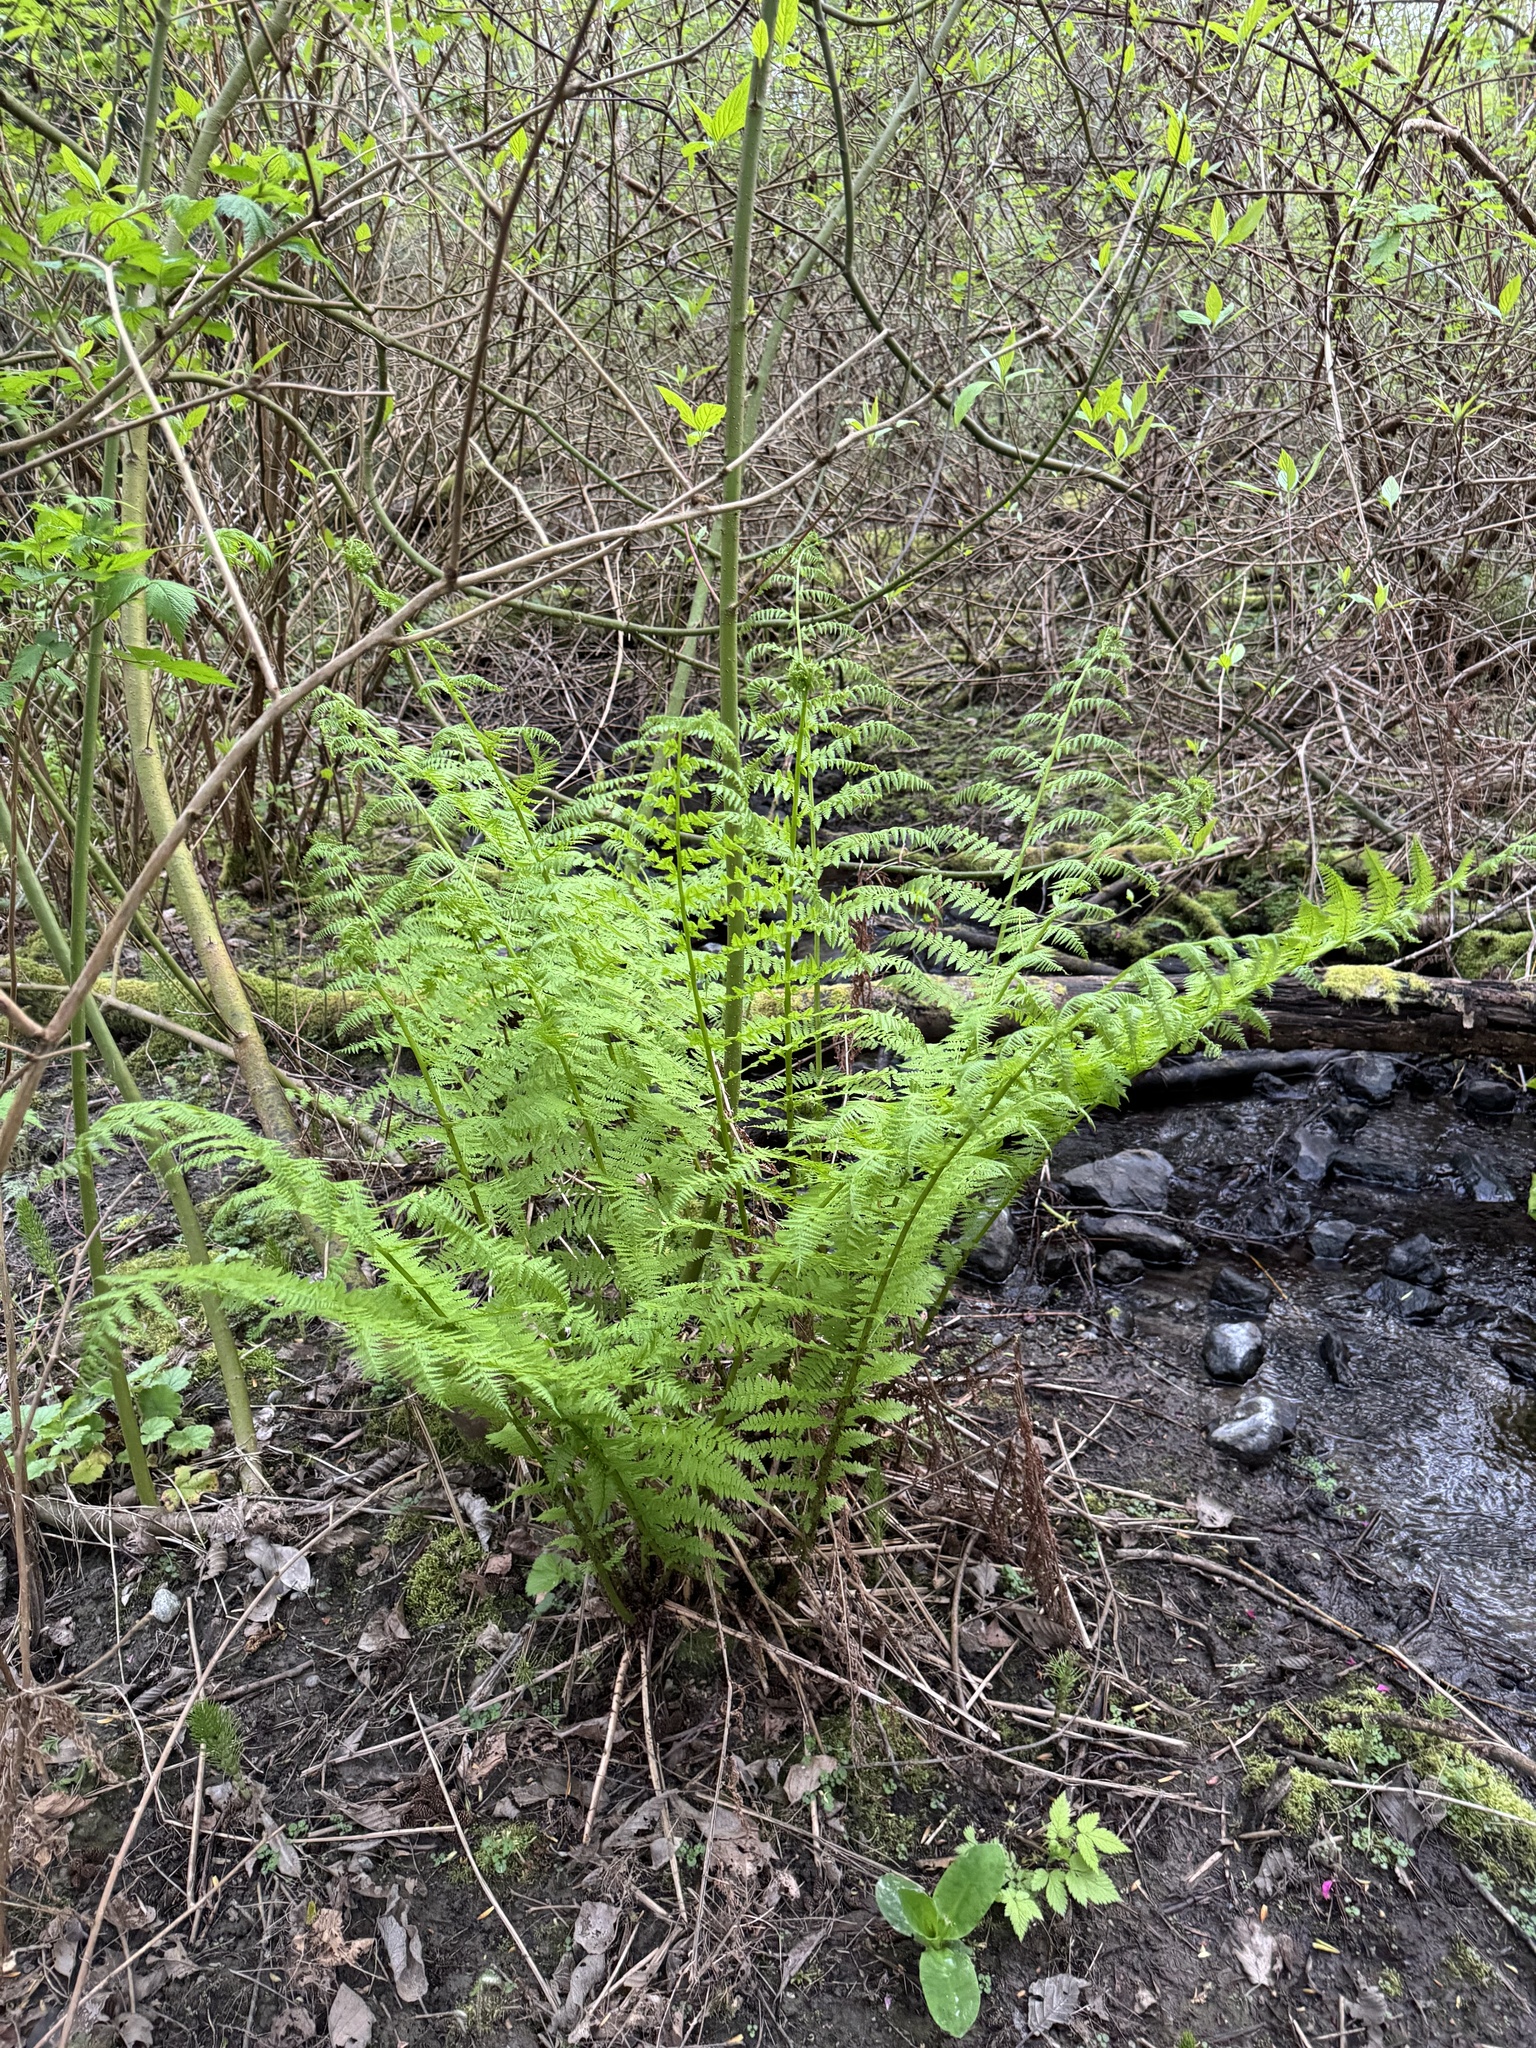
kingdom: Plantae
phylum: Tracheophyta
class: Polypodiopsida
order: Polypodiales
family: Athyriaceae
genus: Athyrium
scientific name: Athyrium filix-femina
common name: Lady fern
